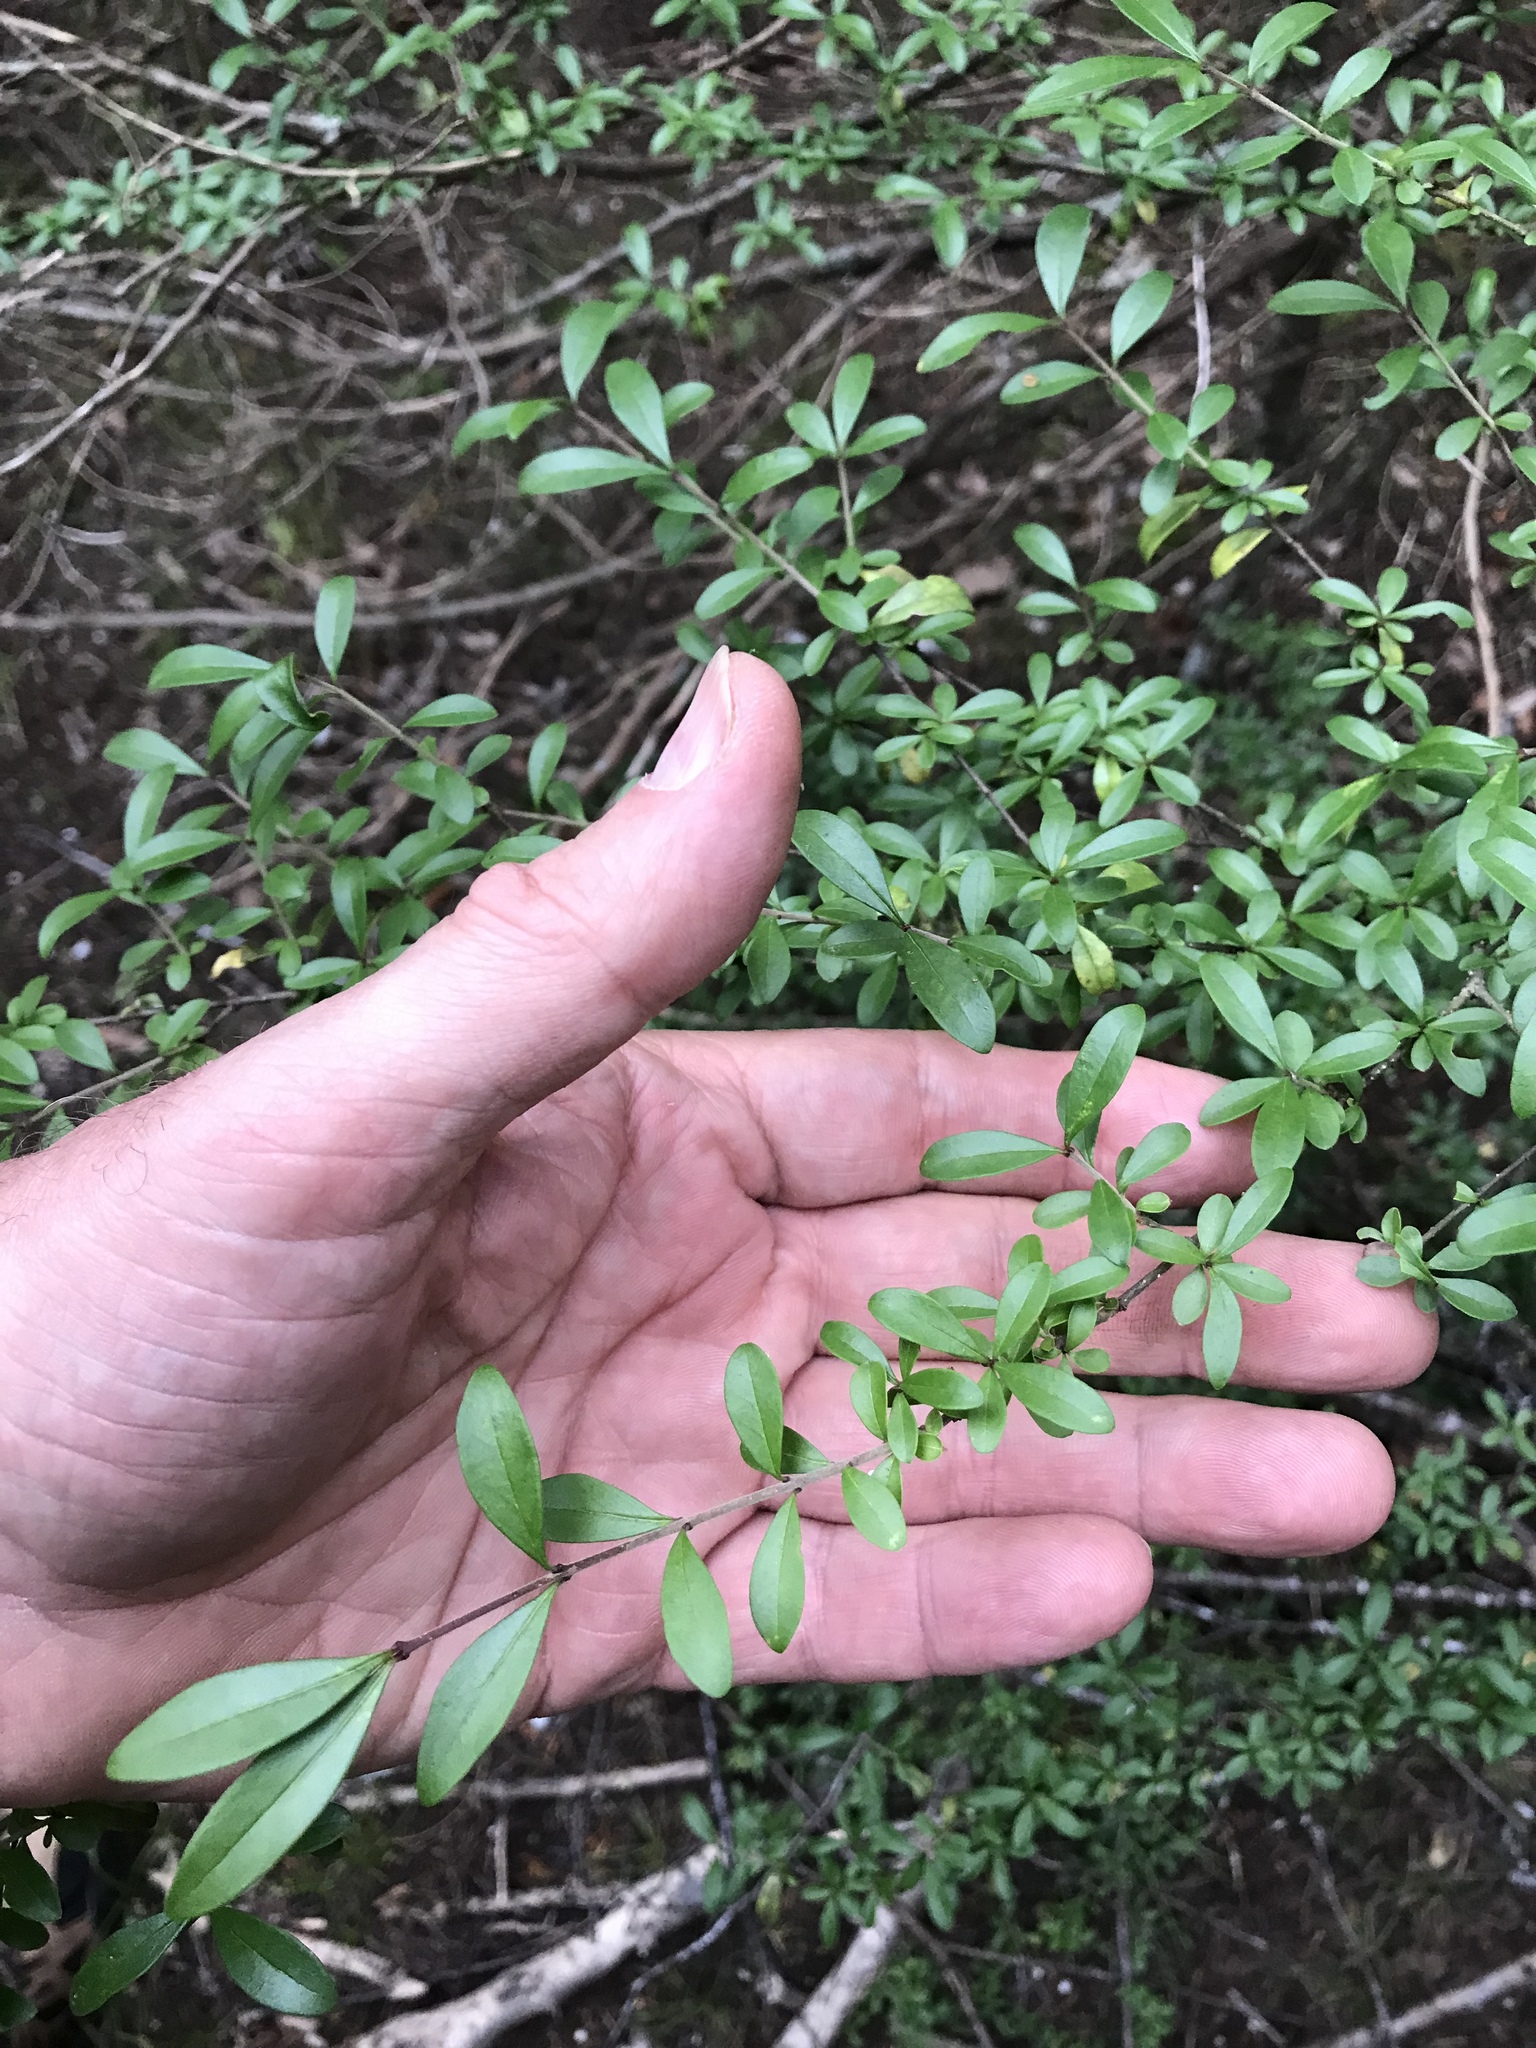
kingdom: Plantae
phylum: Tracheophyta
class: Magnoliopsida
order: Lamiales
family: Oleaceae
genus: Ligustrum
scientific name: Ligustrum quihoui
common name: Waxyleaf privet
